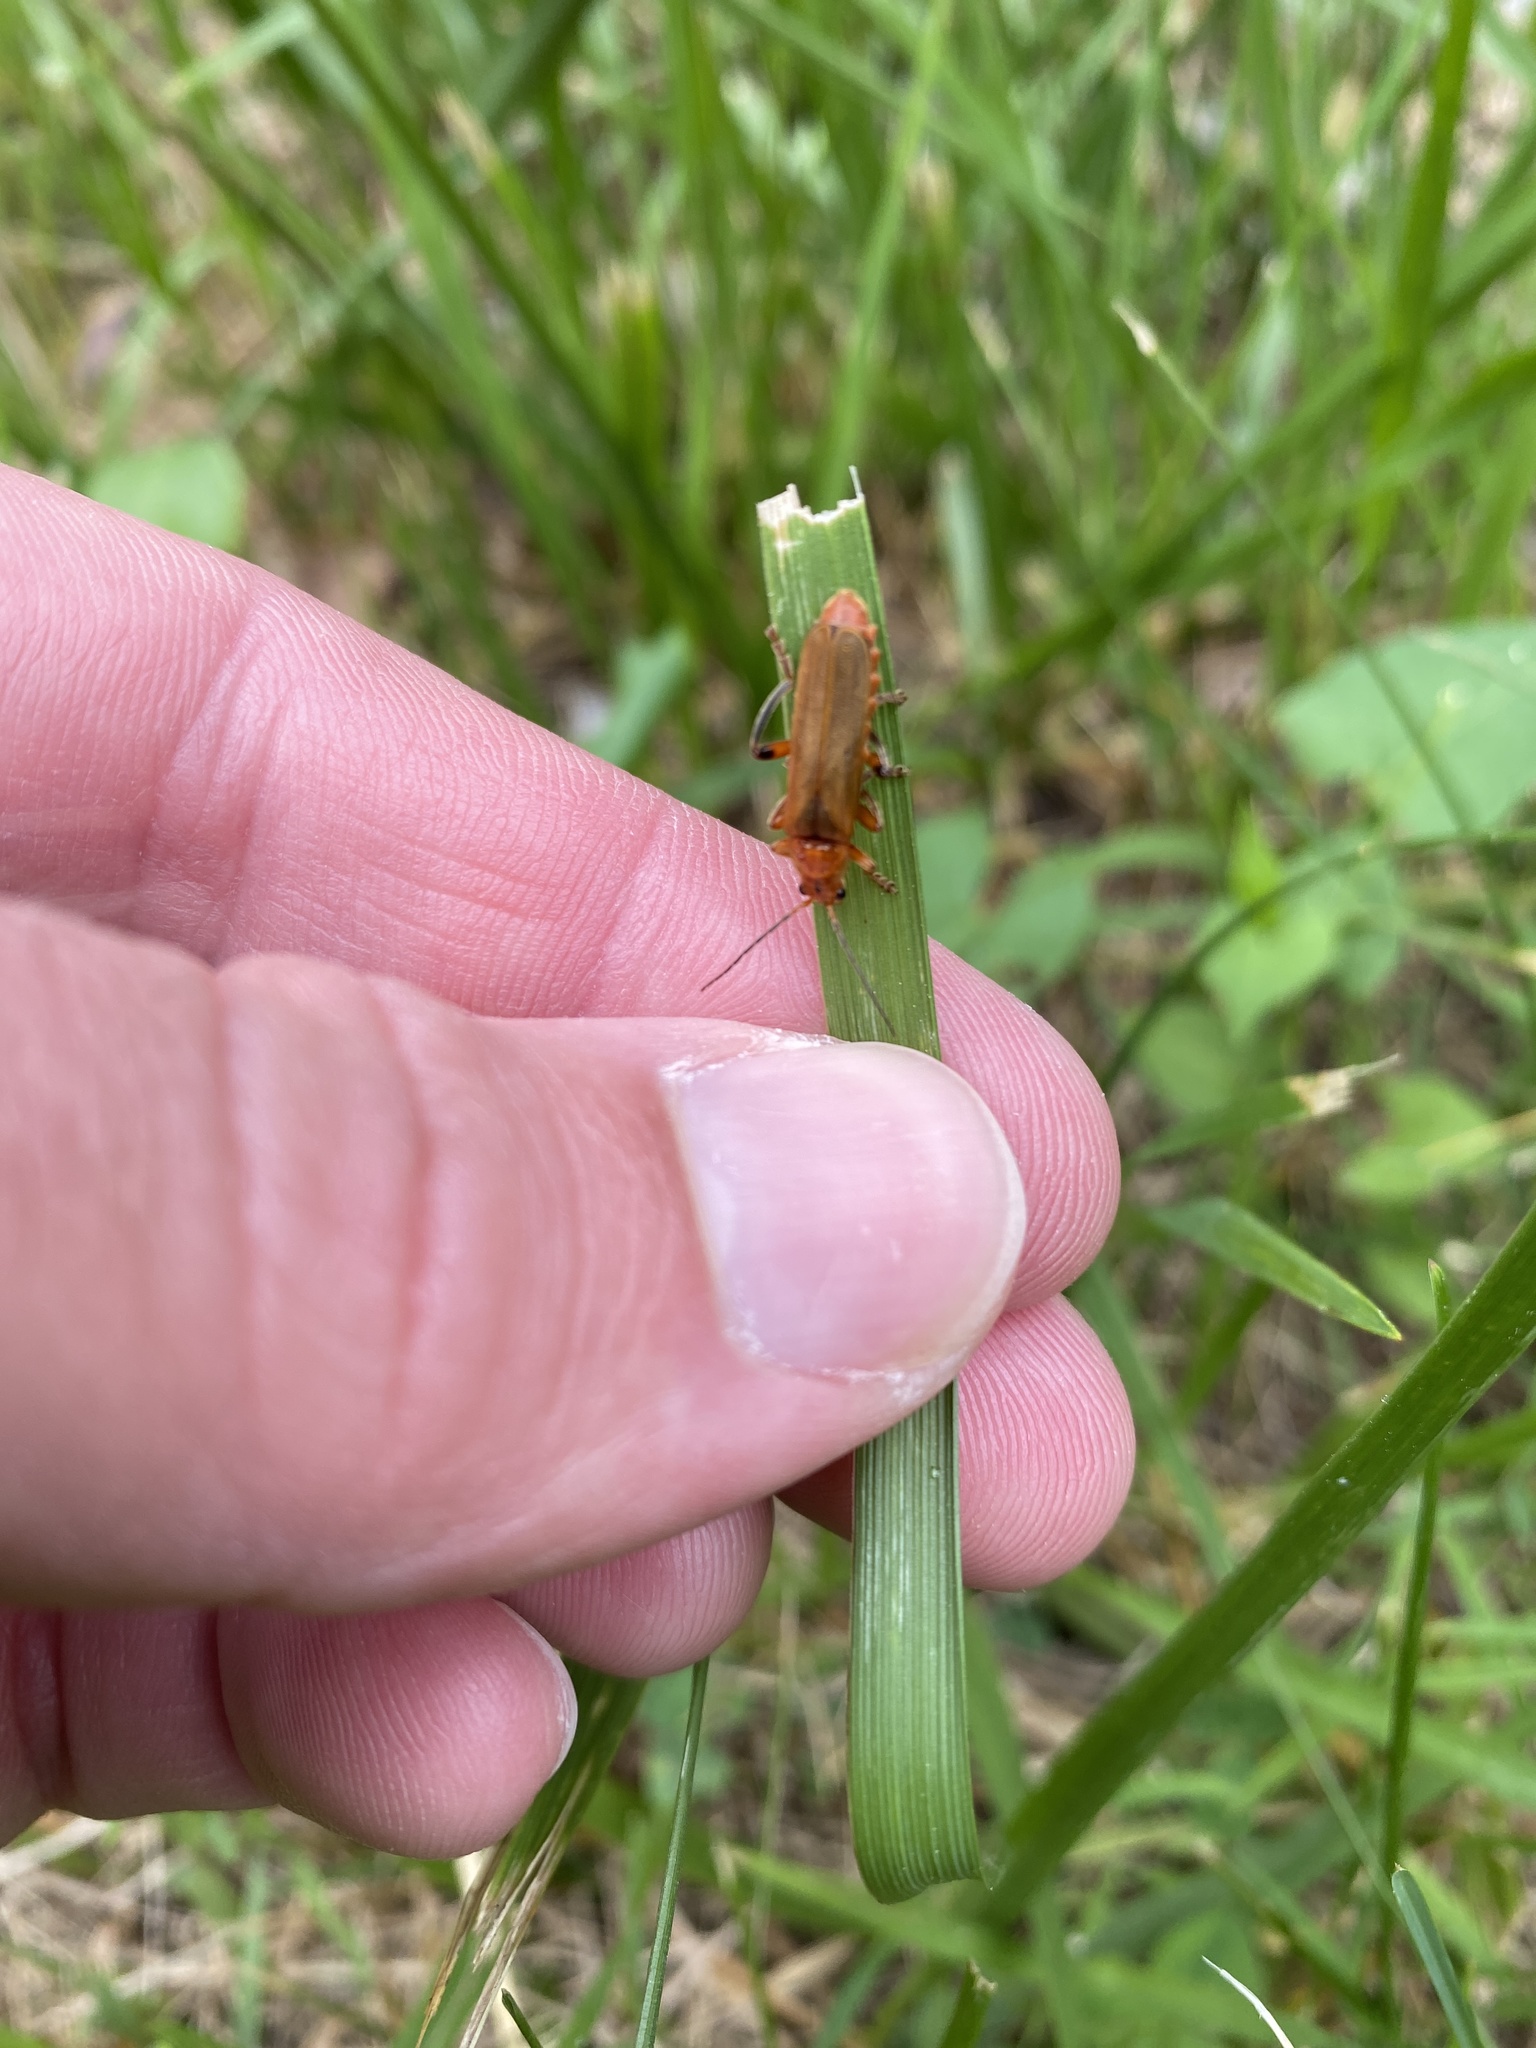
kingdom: Animalia
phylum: Arthropoda
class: Insecta
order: Coleoptera
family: Cantharidae
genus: Cantharis
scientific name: Cantharis livida
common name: Livid soldier beetle
